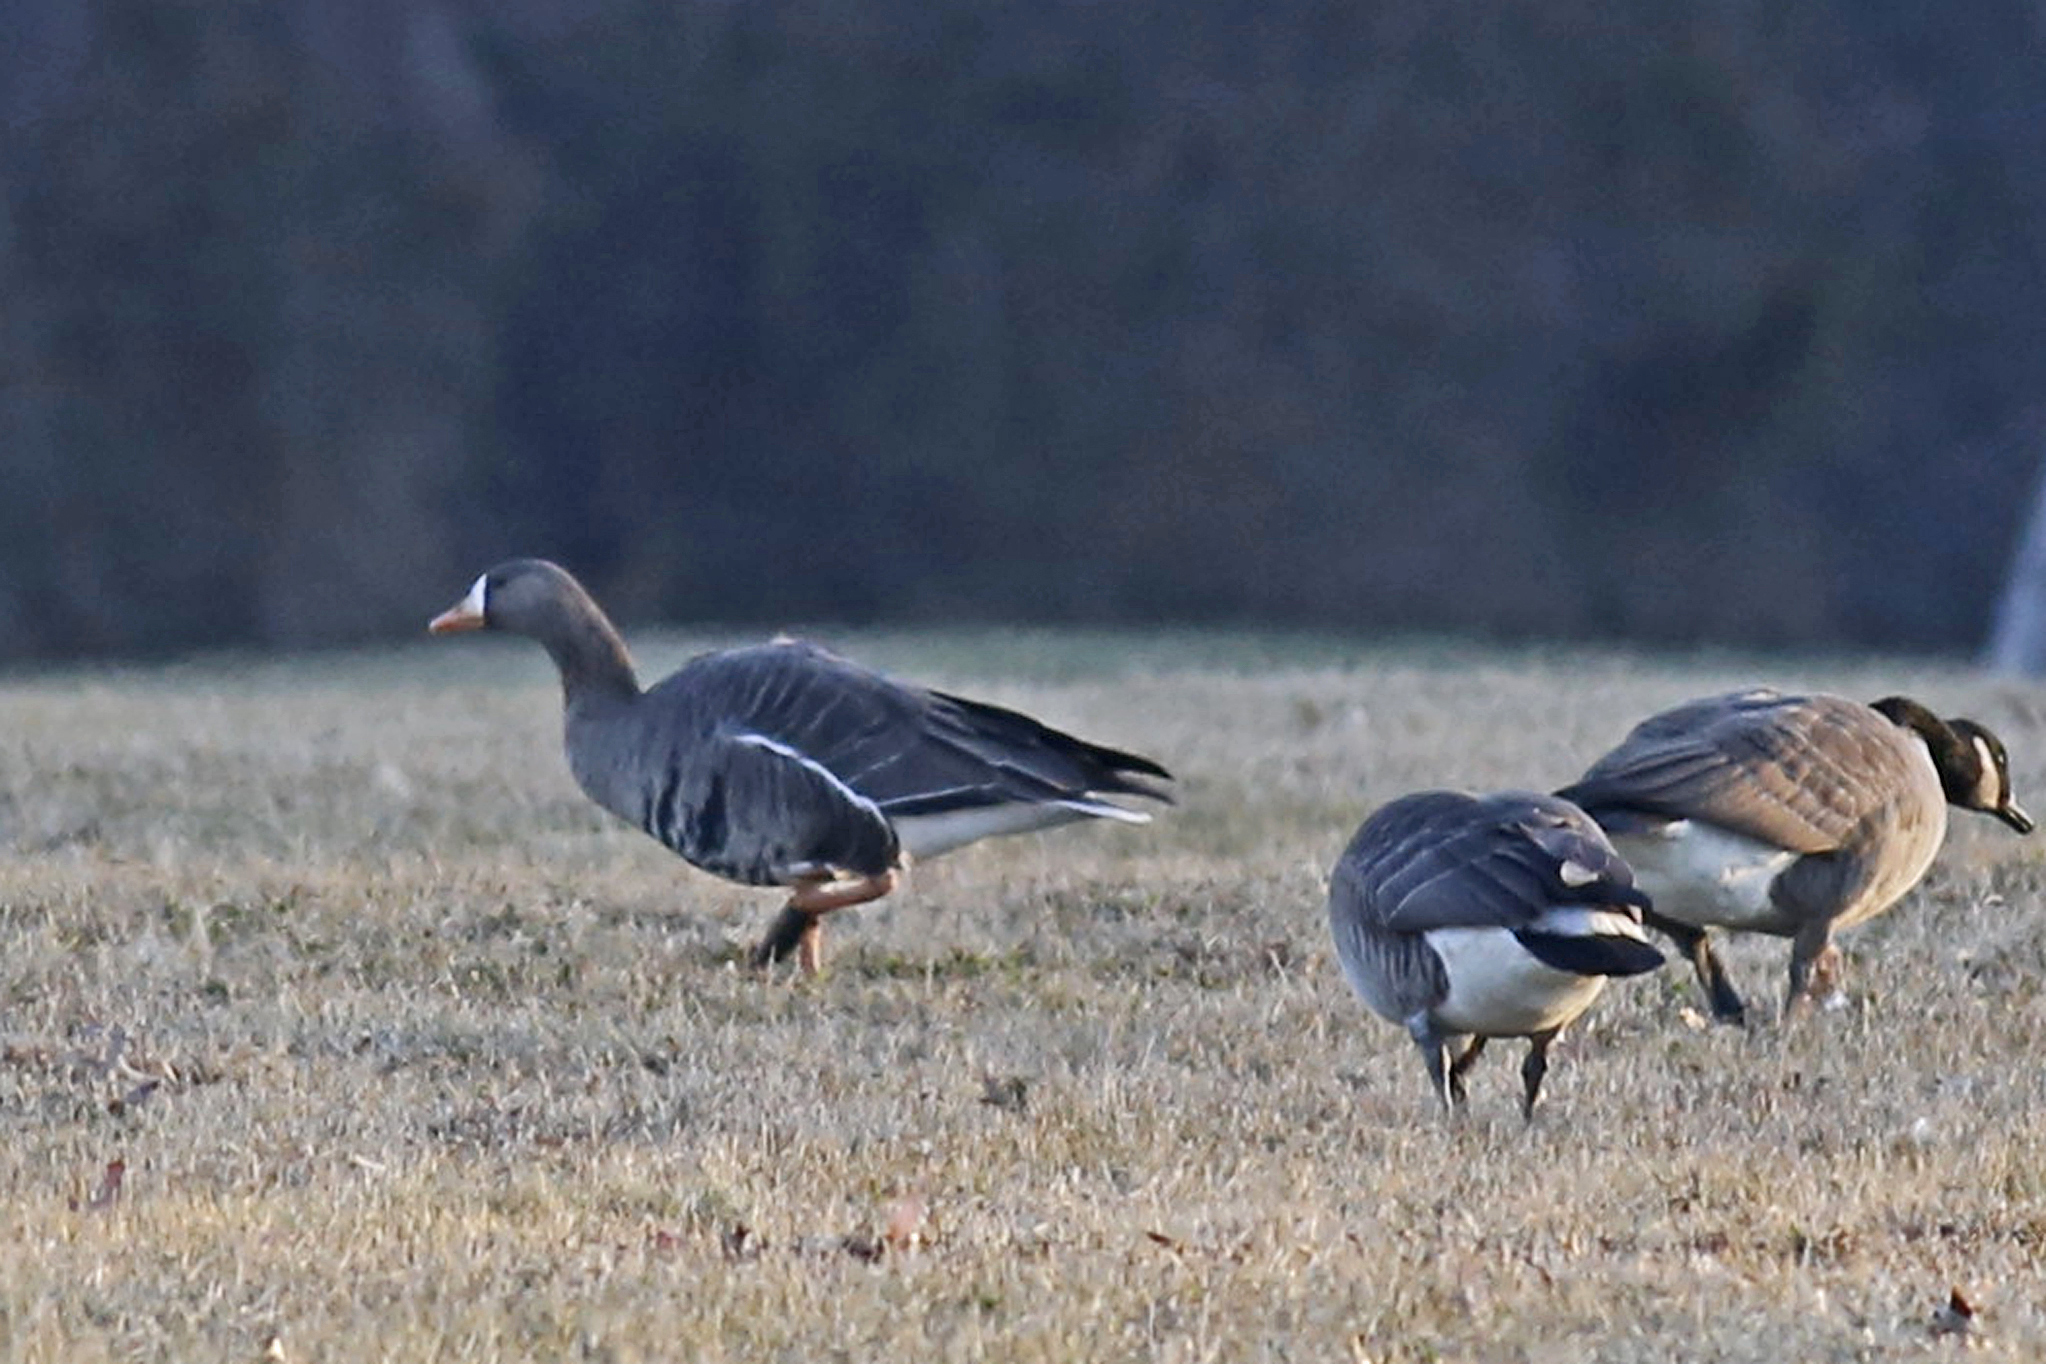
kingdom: Animalia
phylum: Chordata
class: Aves
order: Anseriformes
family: Anatidae
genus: Anser
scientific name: Anser albifrons
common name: Greater white-fronted goose
